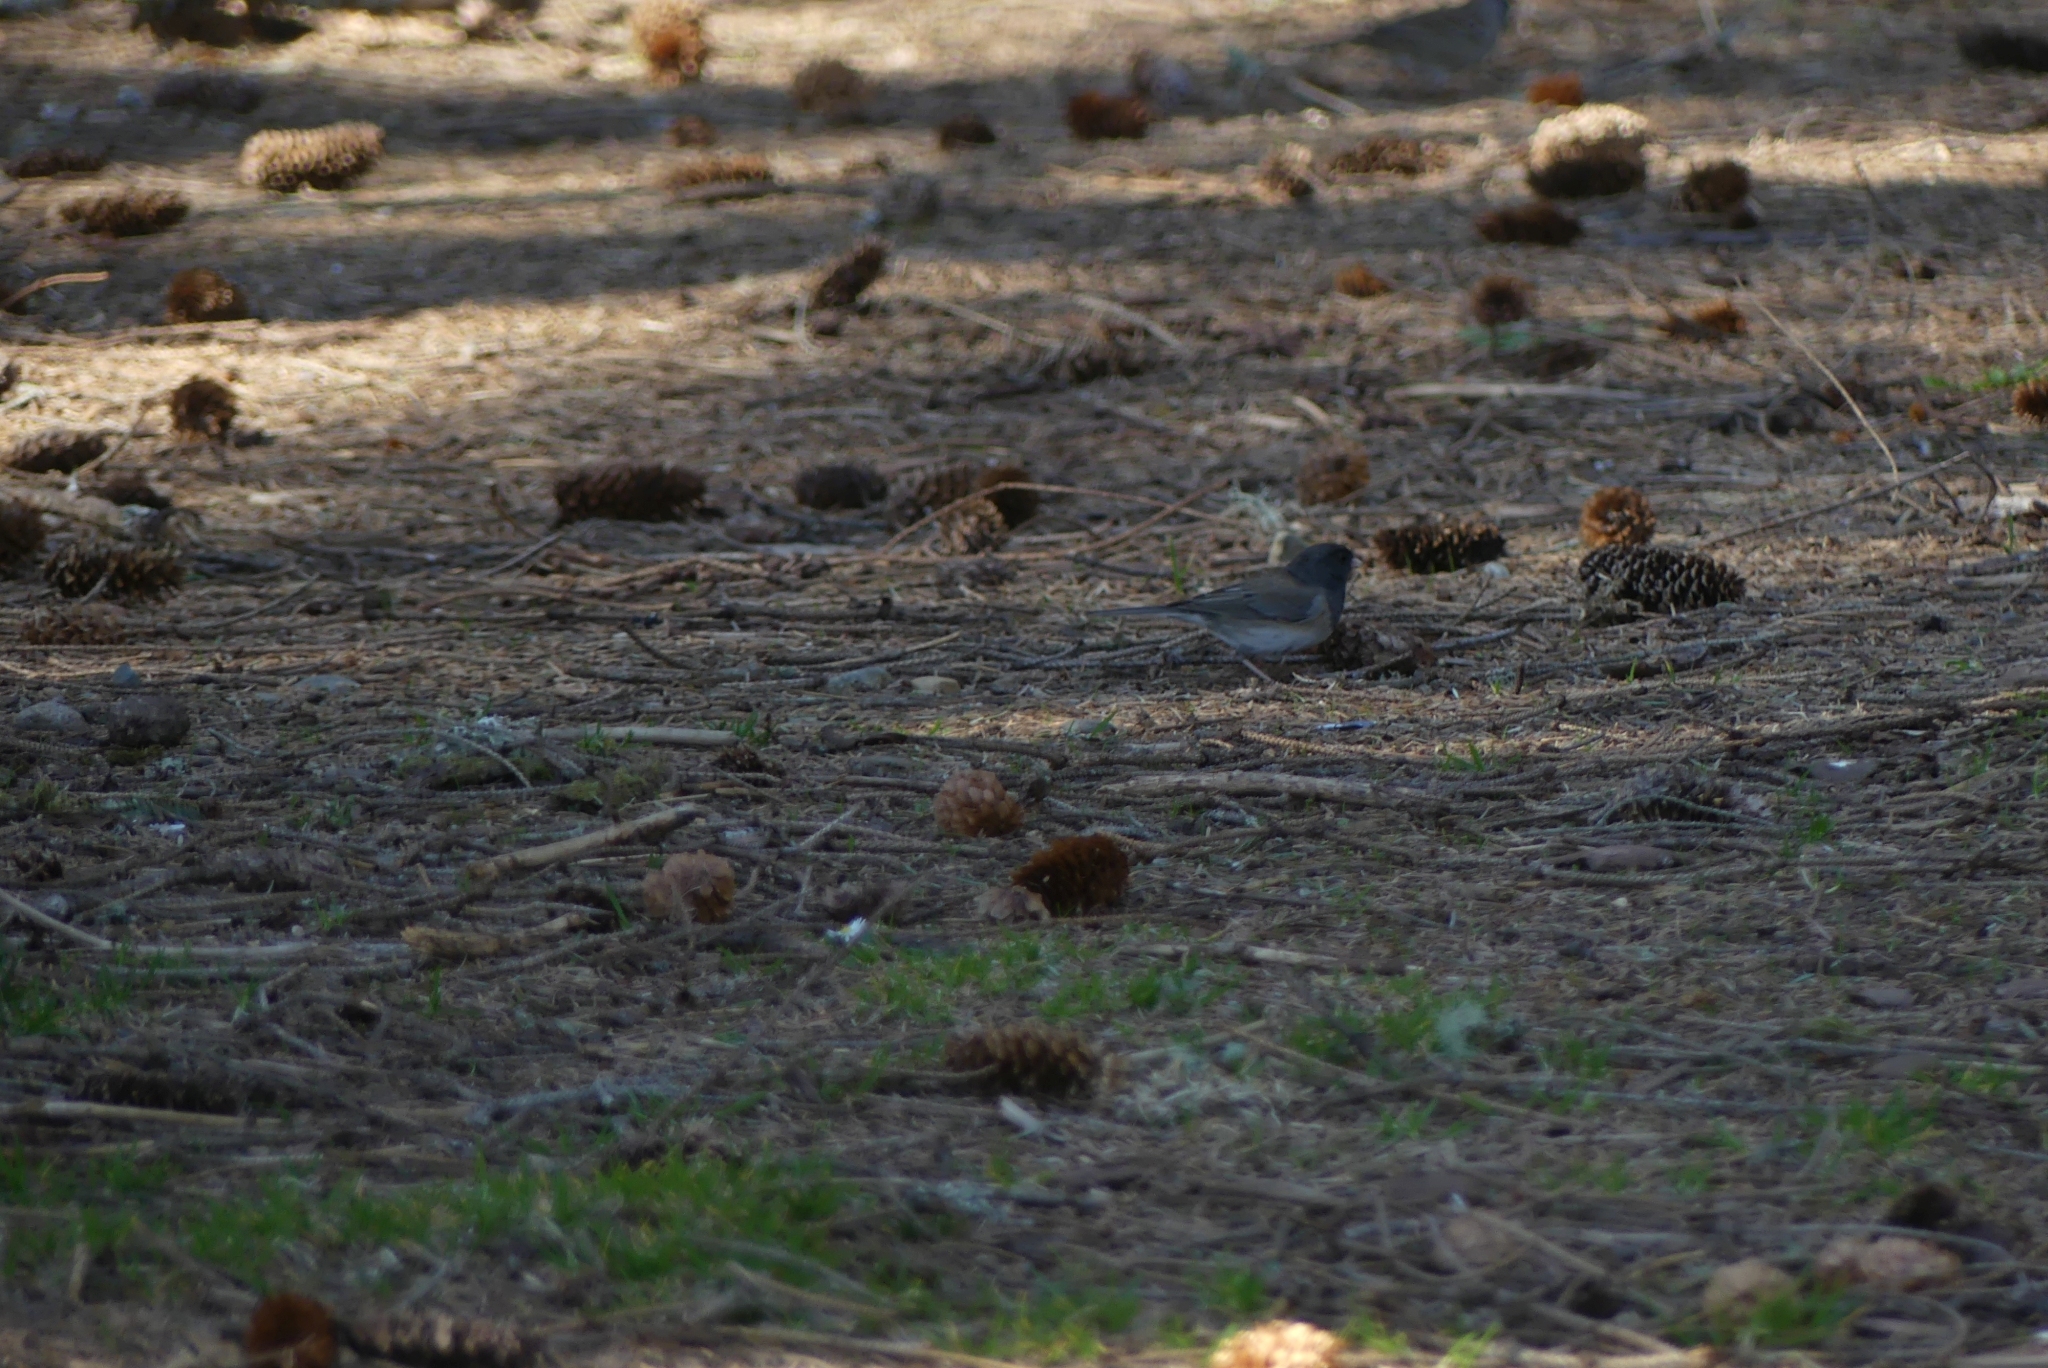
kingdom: Animalia
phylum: Chordata
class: Aves
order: Passeriformes
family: Passerellidae
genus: Junco
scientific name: Junco hyemalis
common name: Dark-eyed junco
